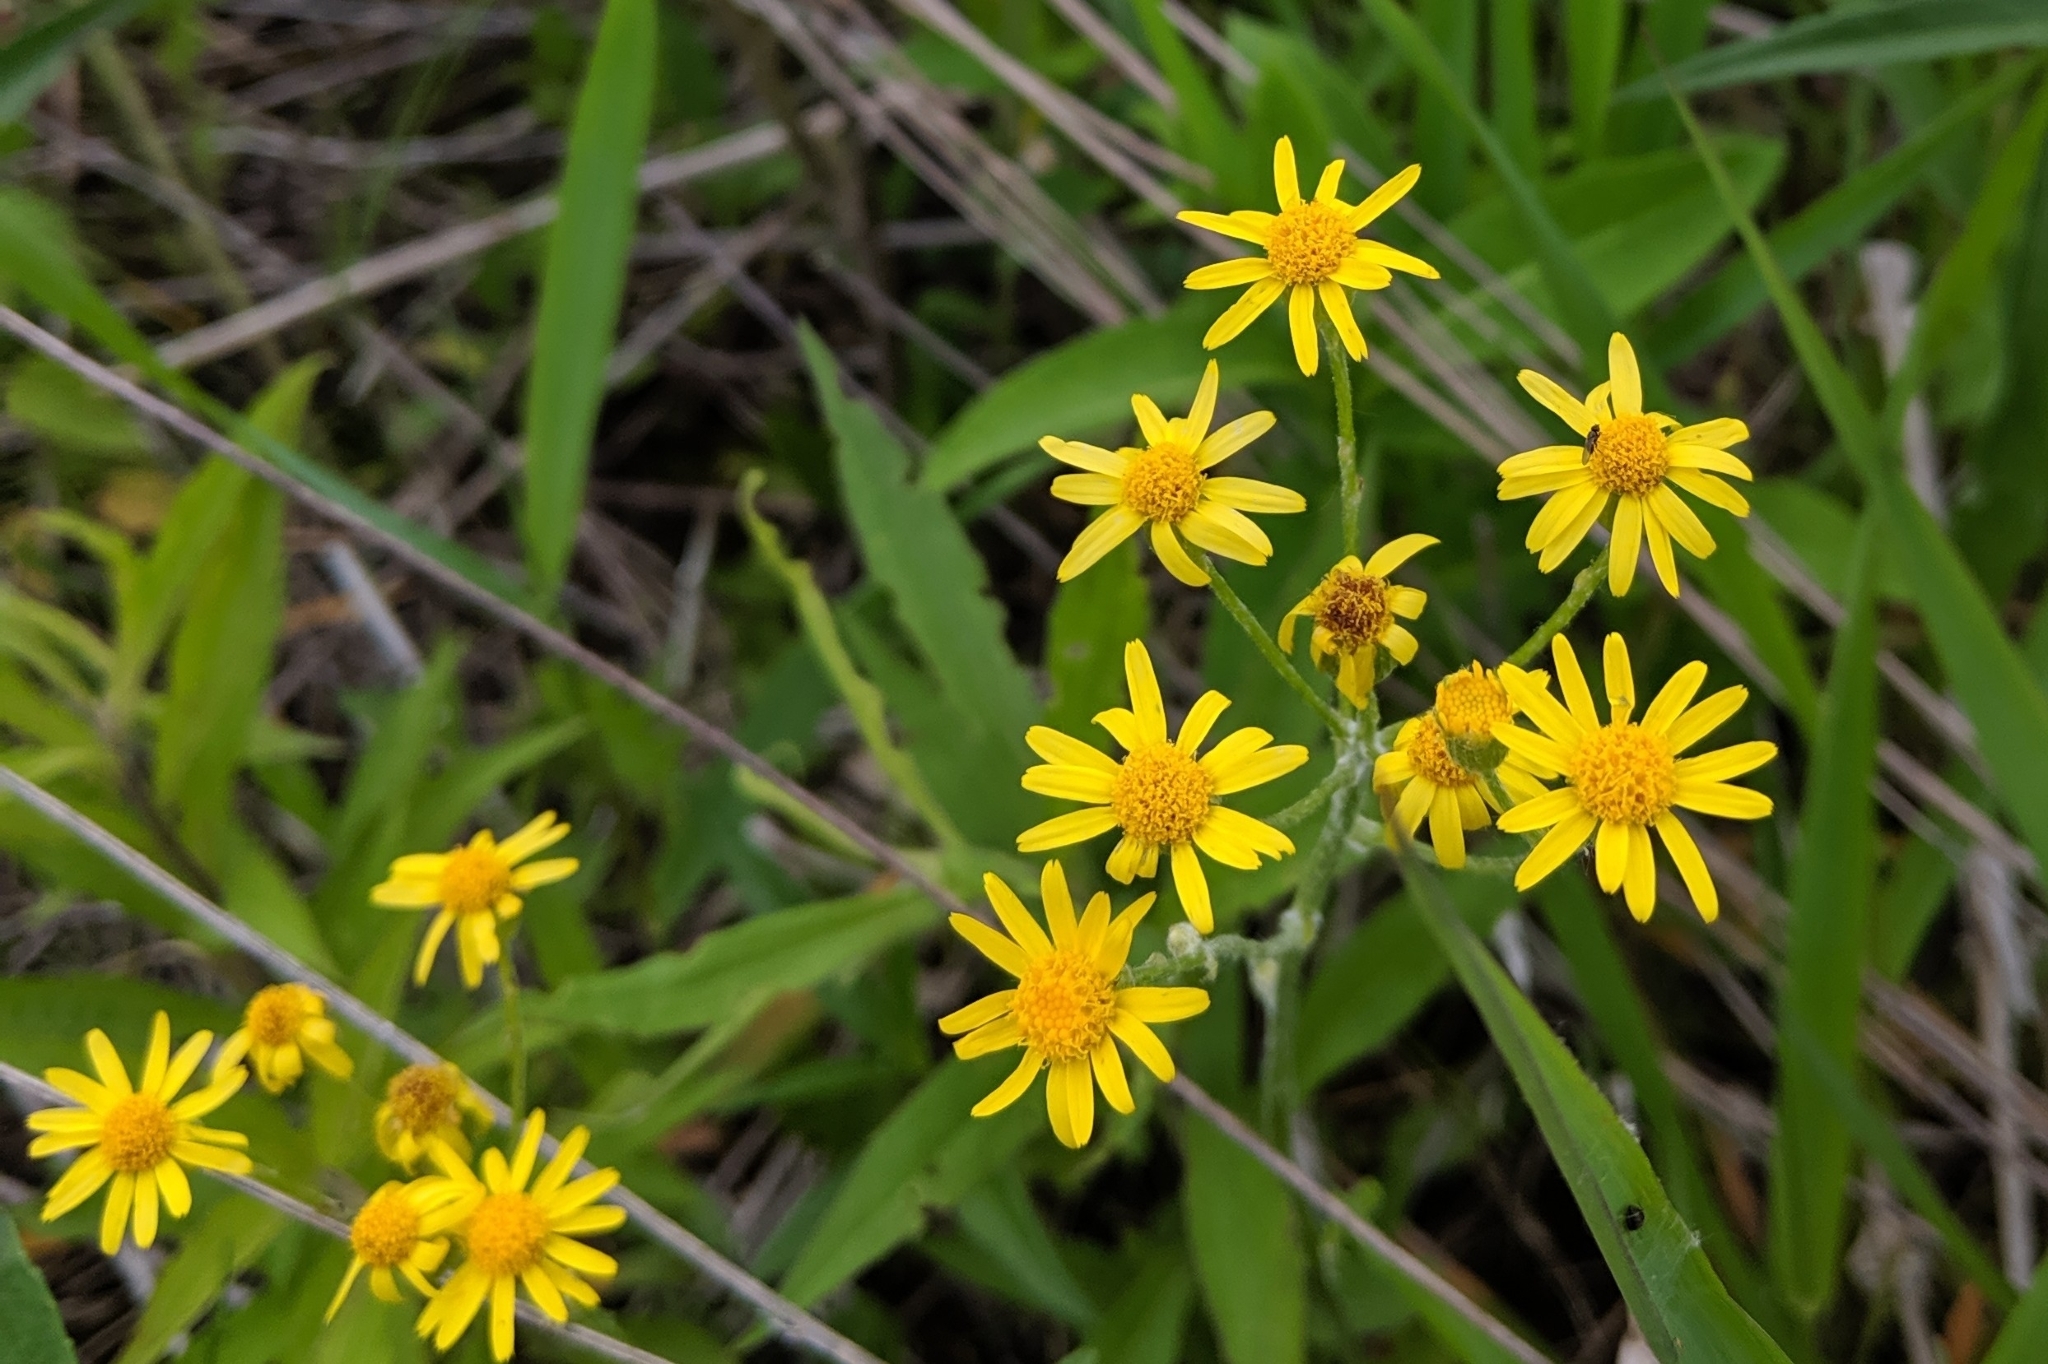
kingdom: Plantae
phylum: Tracheophyta
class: Magnoliopsida
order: Asterales
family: Asteraceae
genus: Packera
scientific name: Packera plattensis
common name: Prairie groundsel
